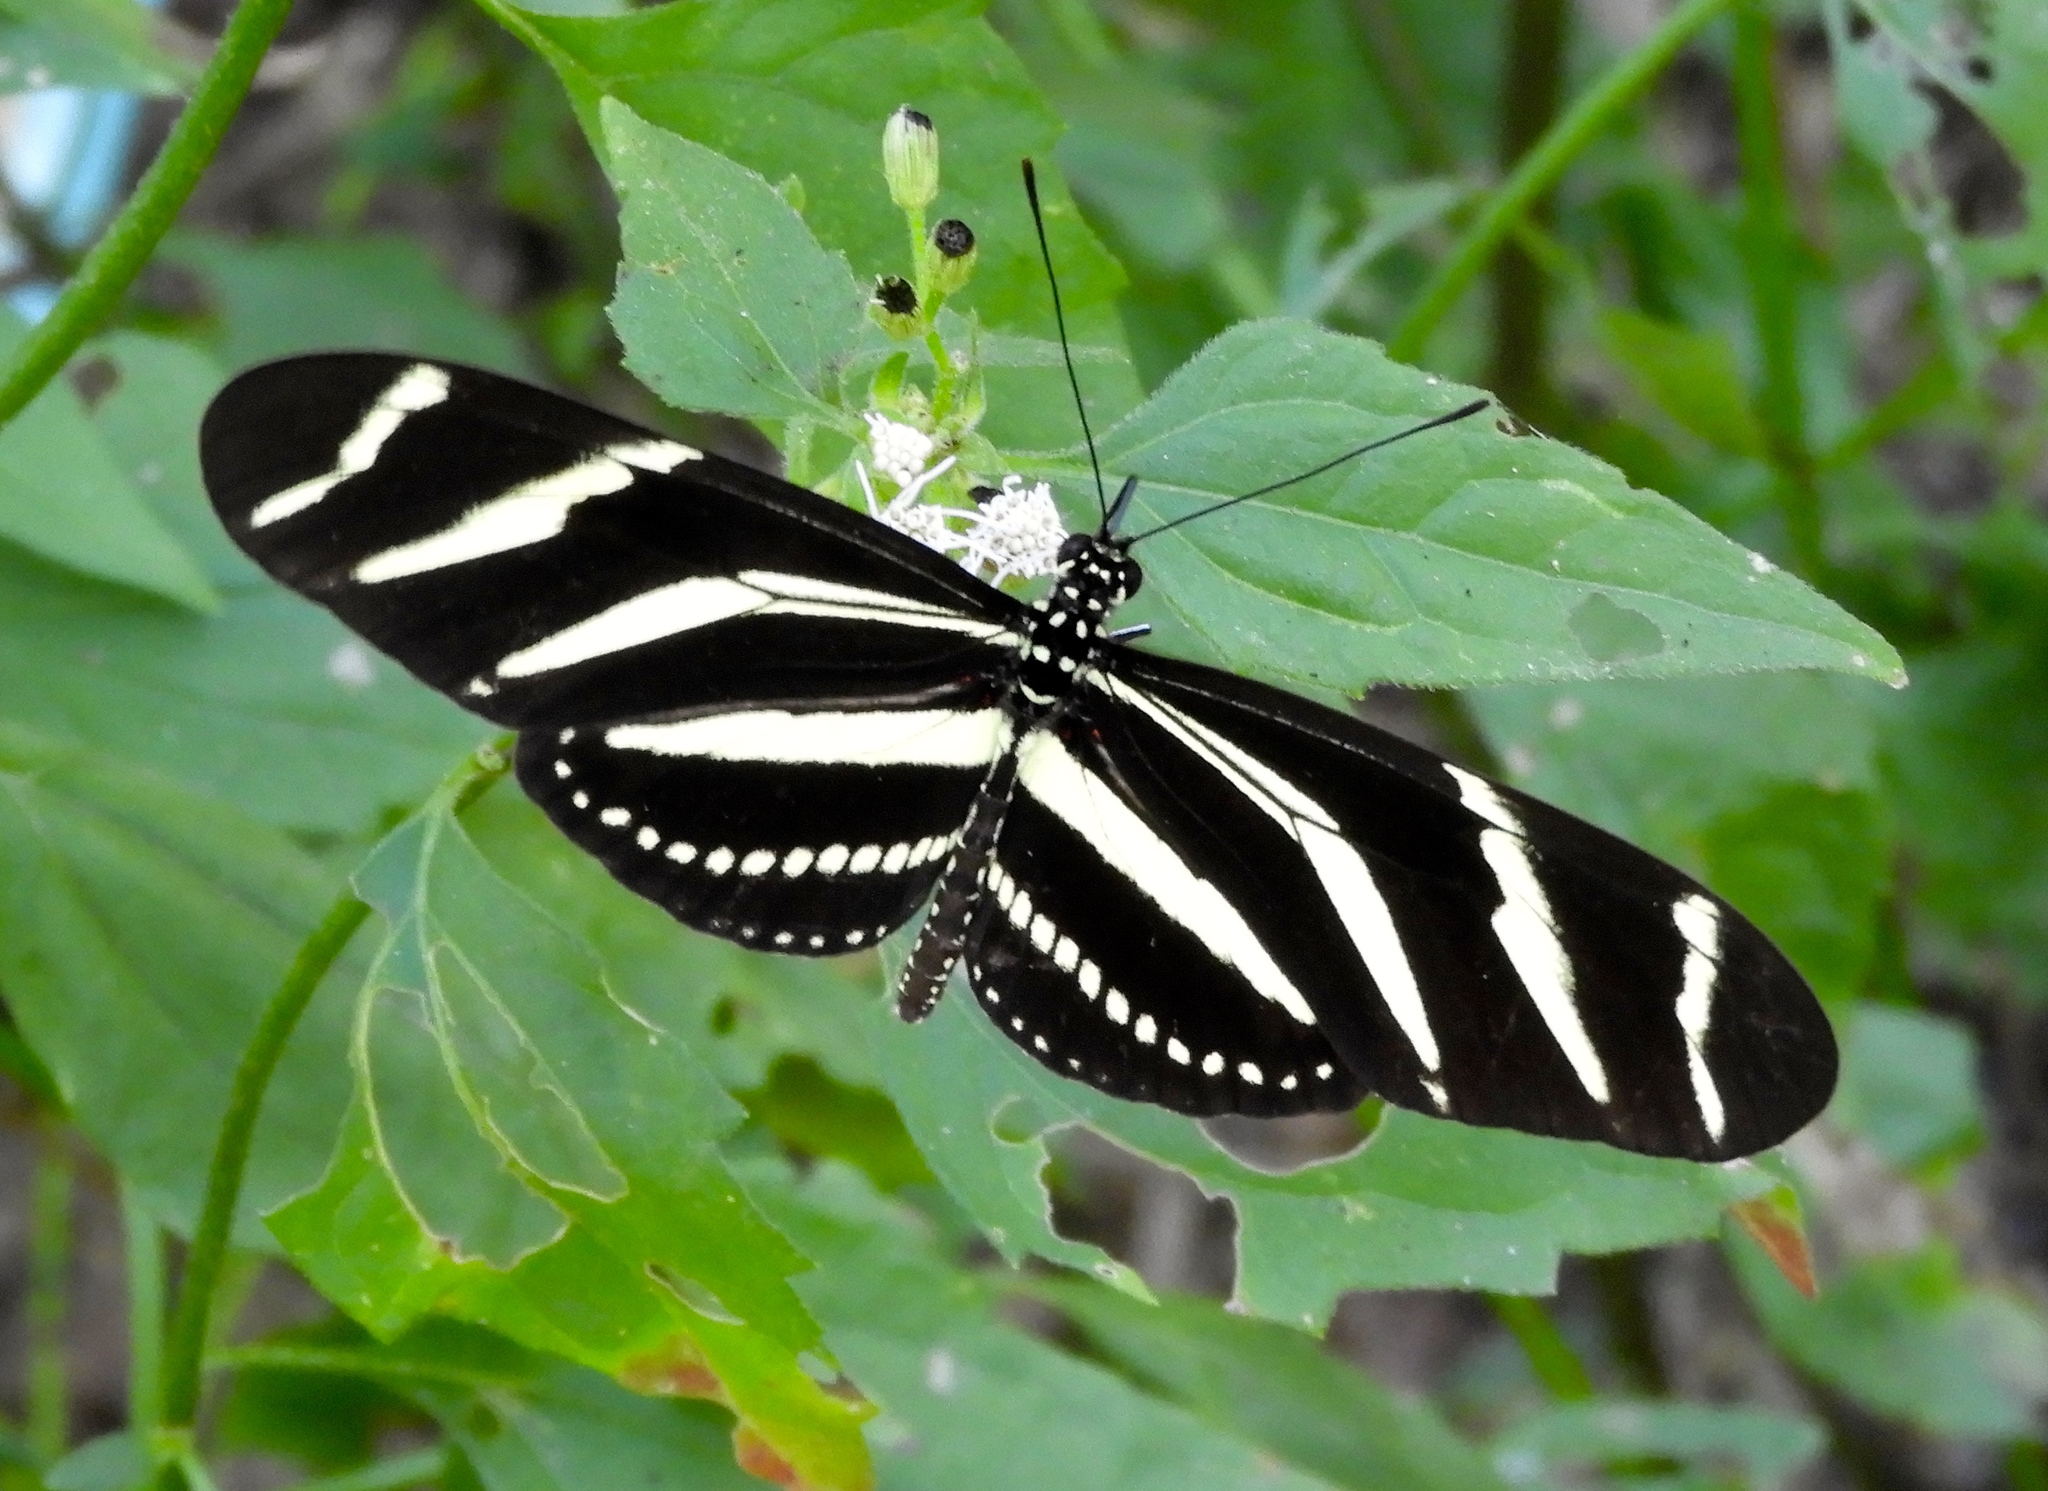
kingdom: Animalia
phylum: Arthropoda
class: Insecta
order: Lepidoptera
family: Nymphalidae
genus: Heliconius
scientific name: Heliconius charithonia
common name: Zebra long wing
